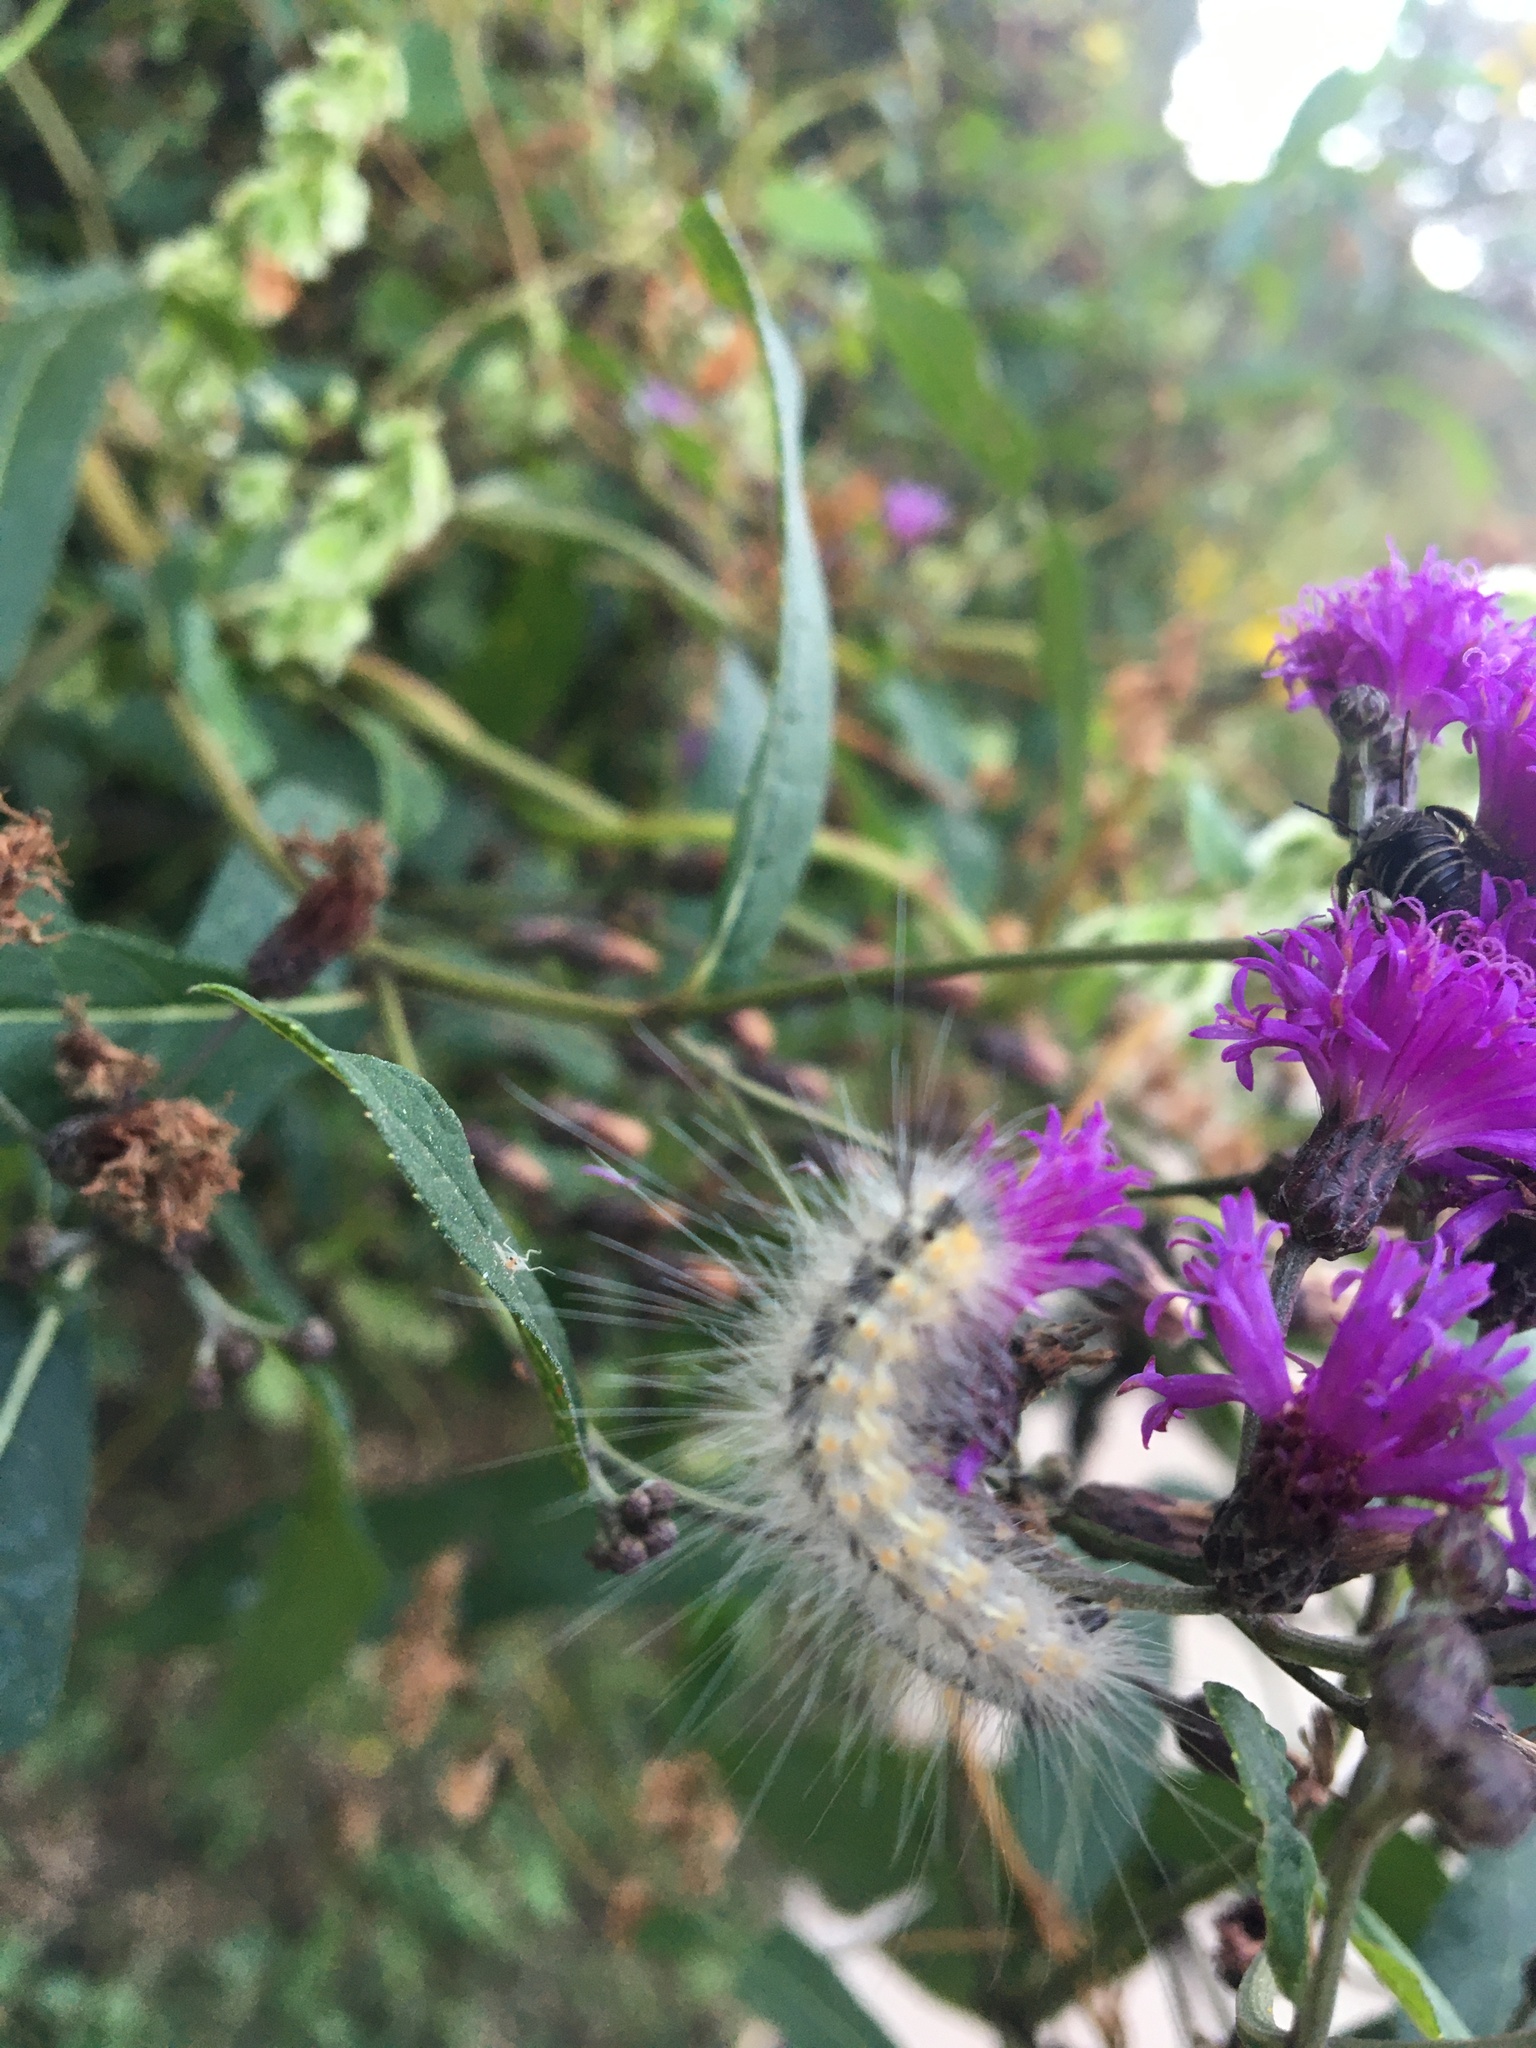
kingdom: Animalia
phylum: Arthropoda
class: Insecta
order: Lepidoptera
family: Erebidae
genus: Hyphantria
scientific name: Hyphantria cunea
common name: American white moth
